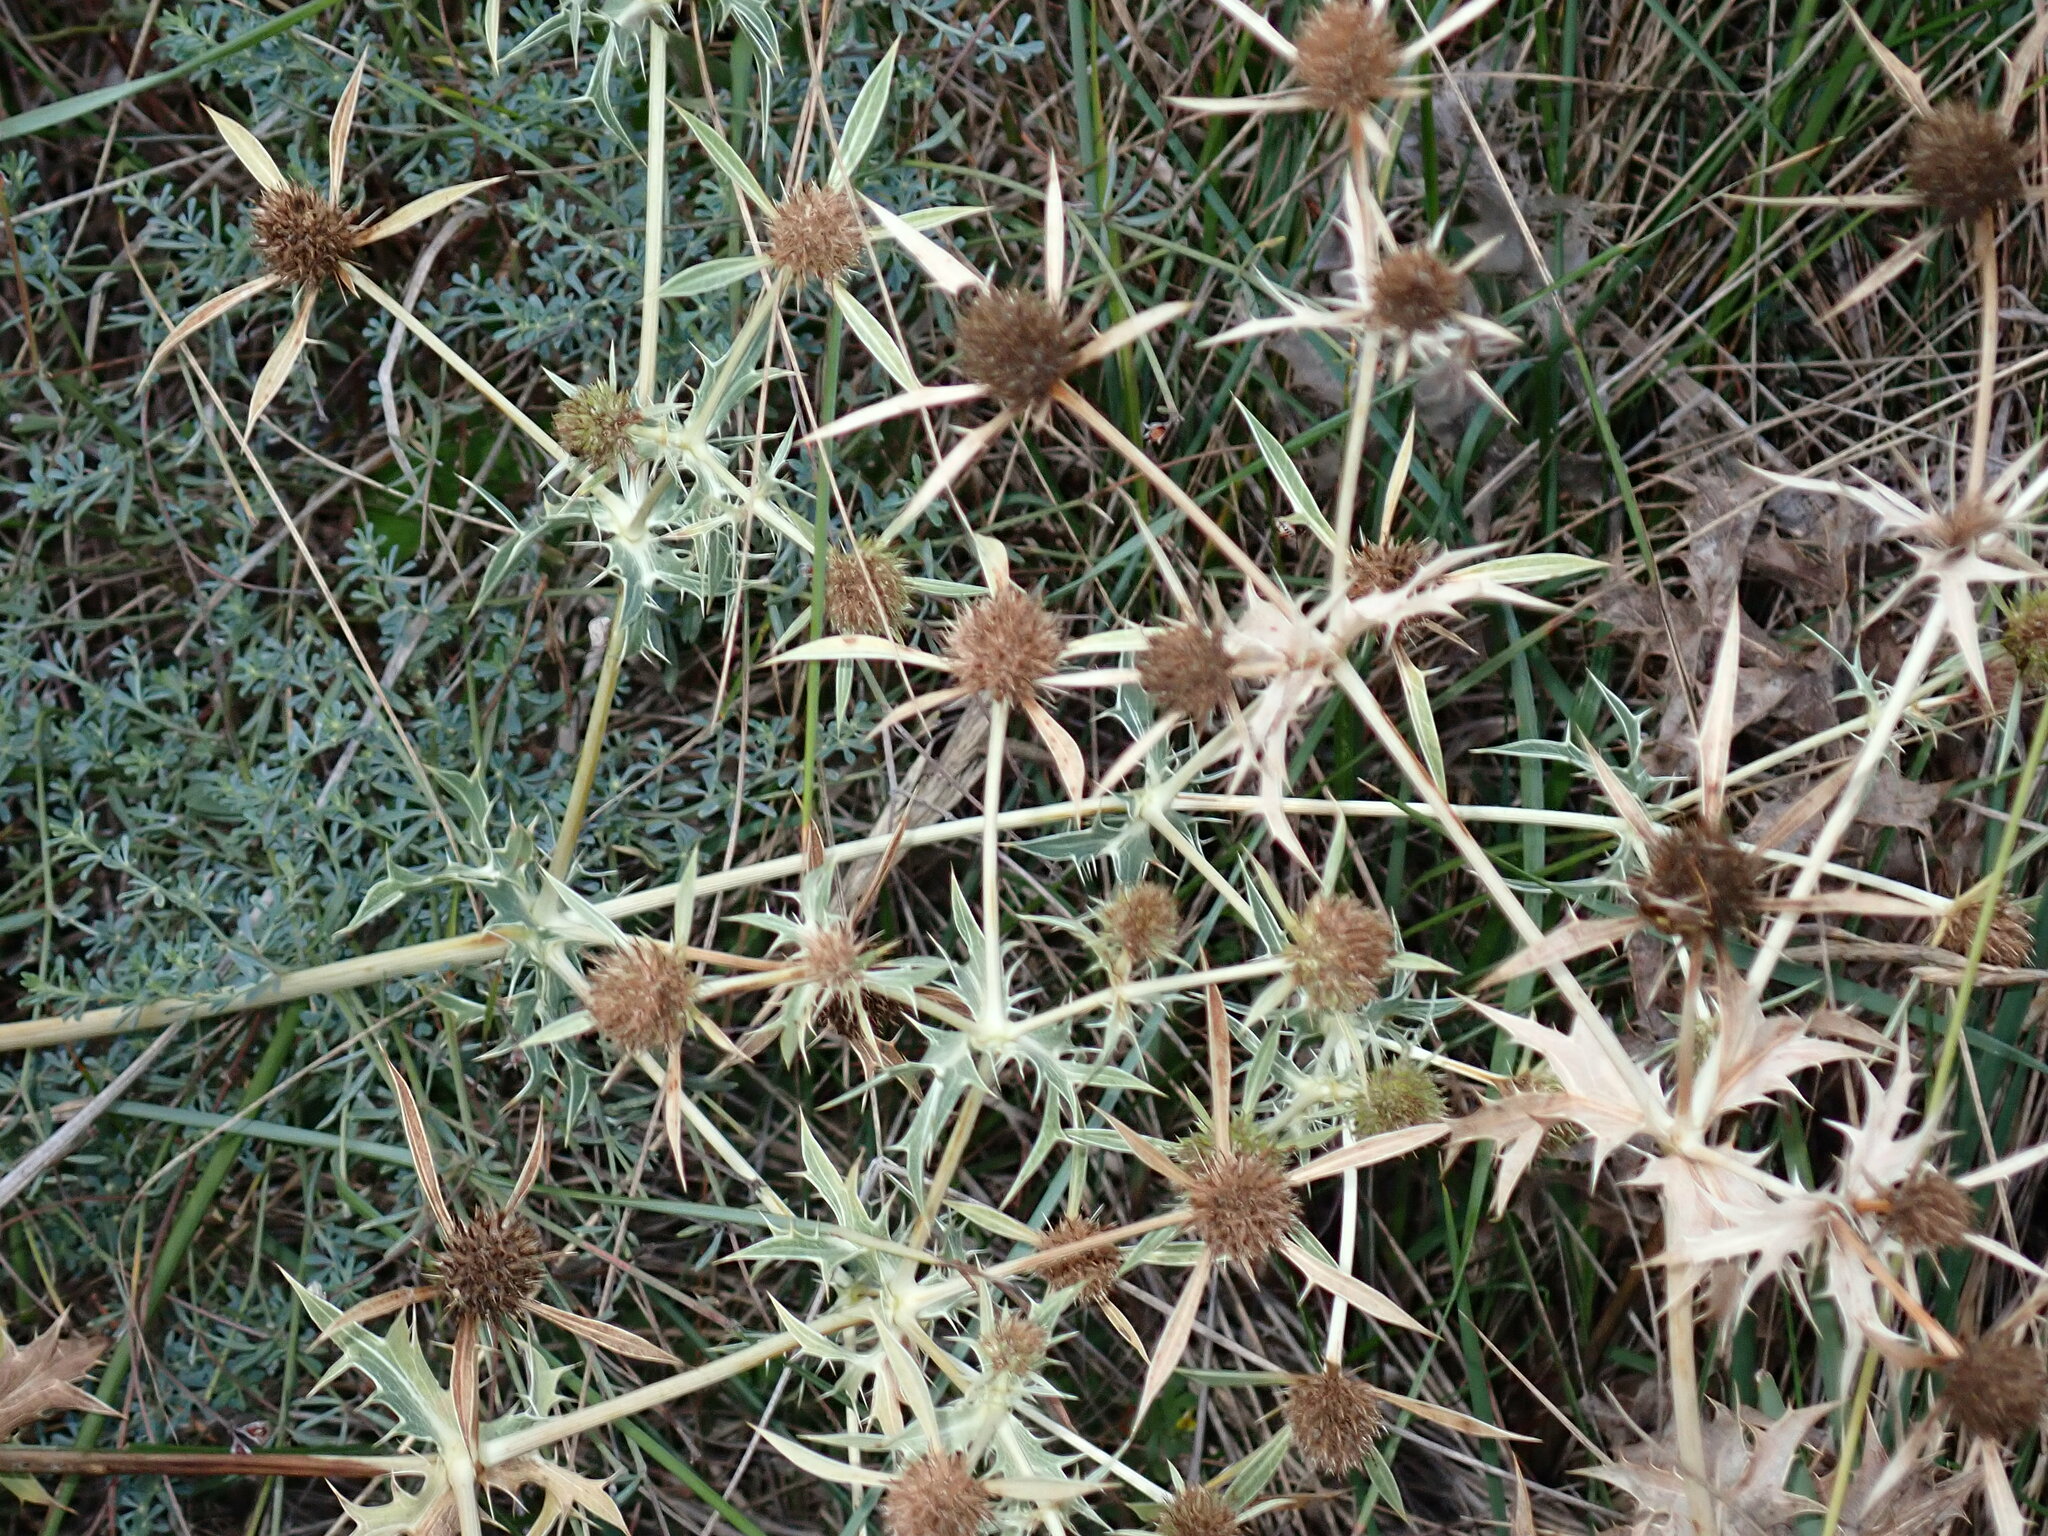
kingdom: Plantae
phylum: Tracheophyta
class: Magnoliopsida
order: Apiales
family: Apiaceae
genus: Eryngium
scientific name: Eryngium campestre
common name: Field eryngo
